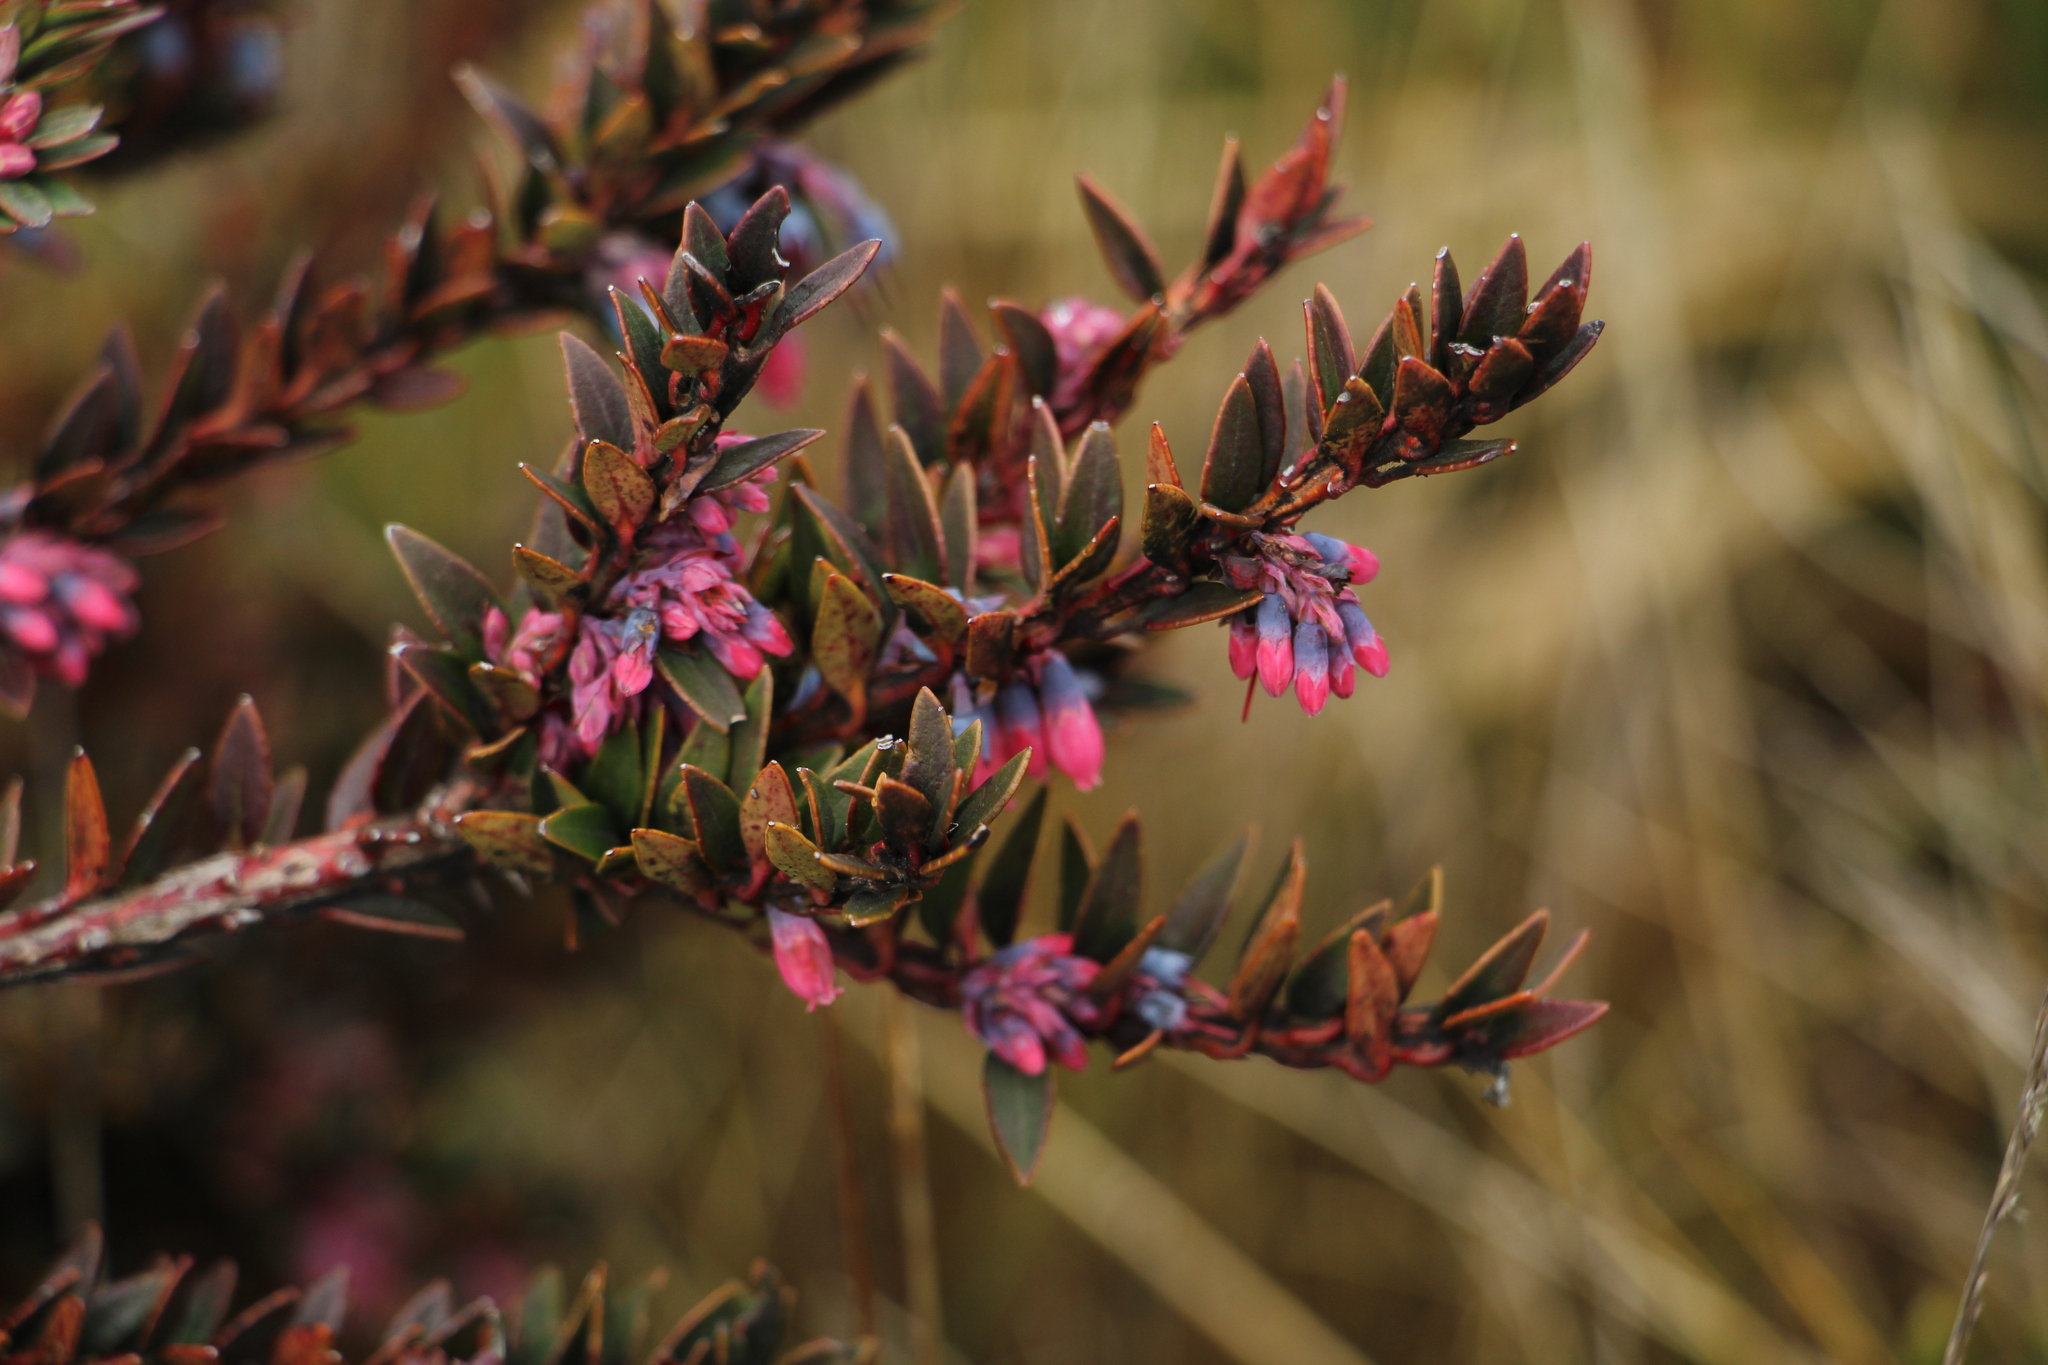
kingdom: Plantae
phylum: Tracheophyta
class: Magnoliopsida
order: Ericales
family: Ericaceae
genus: Vaccinium
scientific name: Vaccinium floribundum
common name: Colombian blueberry
